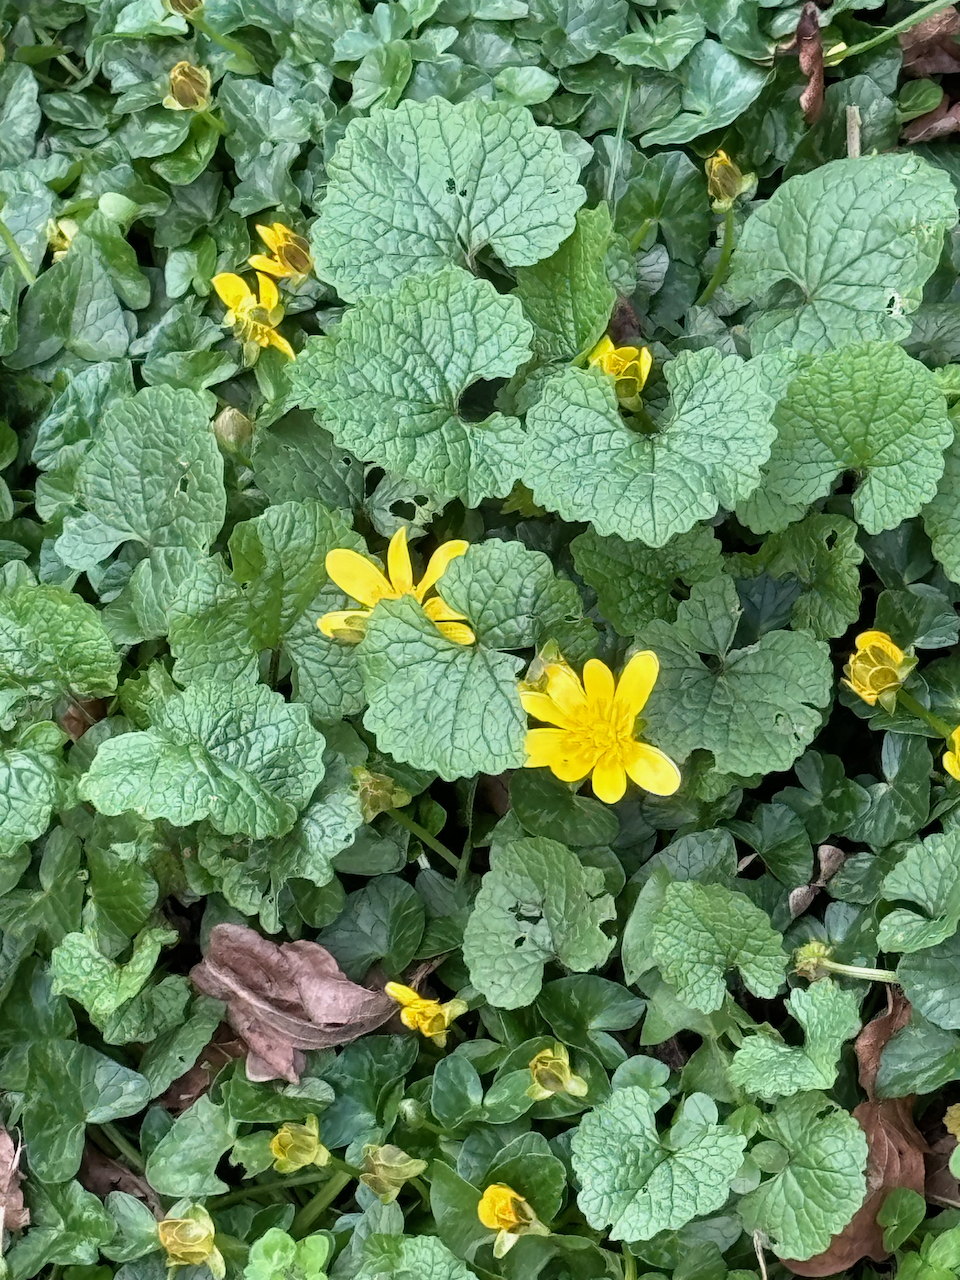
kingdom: Plantae
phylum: Tracheophyta
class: Magnoliopsida
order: Ranunculales
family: Ranunculaceae
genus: Ficaria
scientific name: Ficaria verna
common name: Lesser celandine
